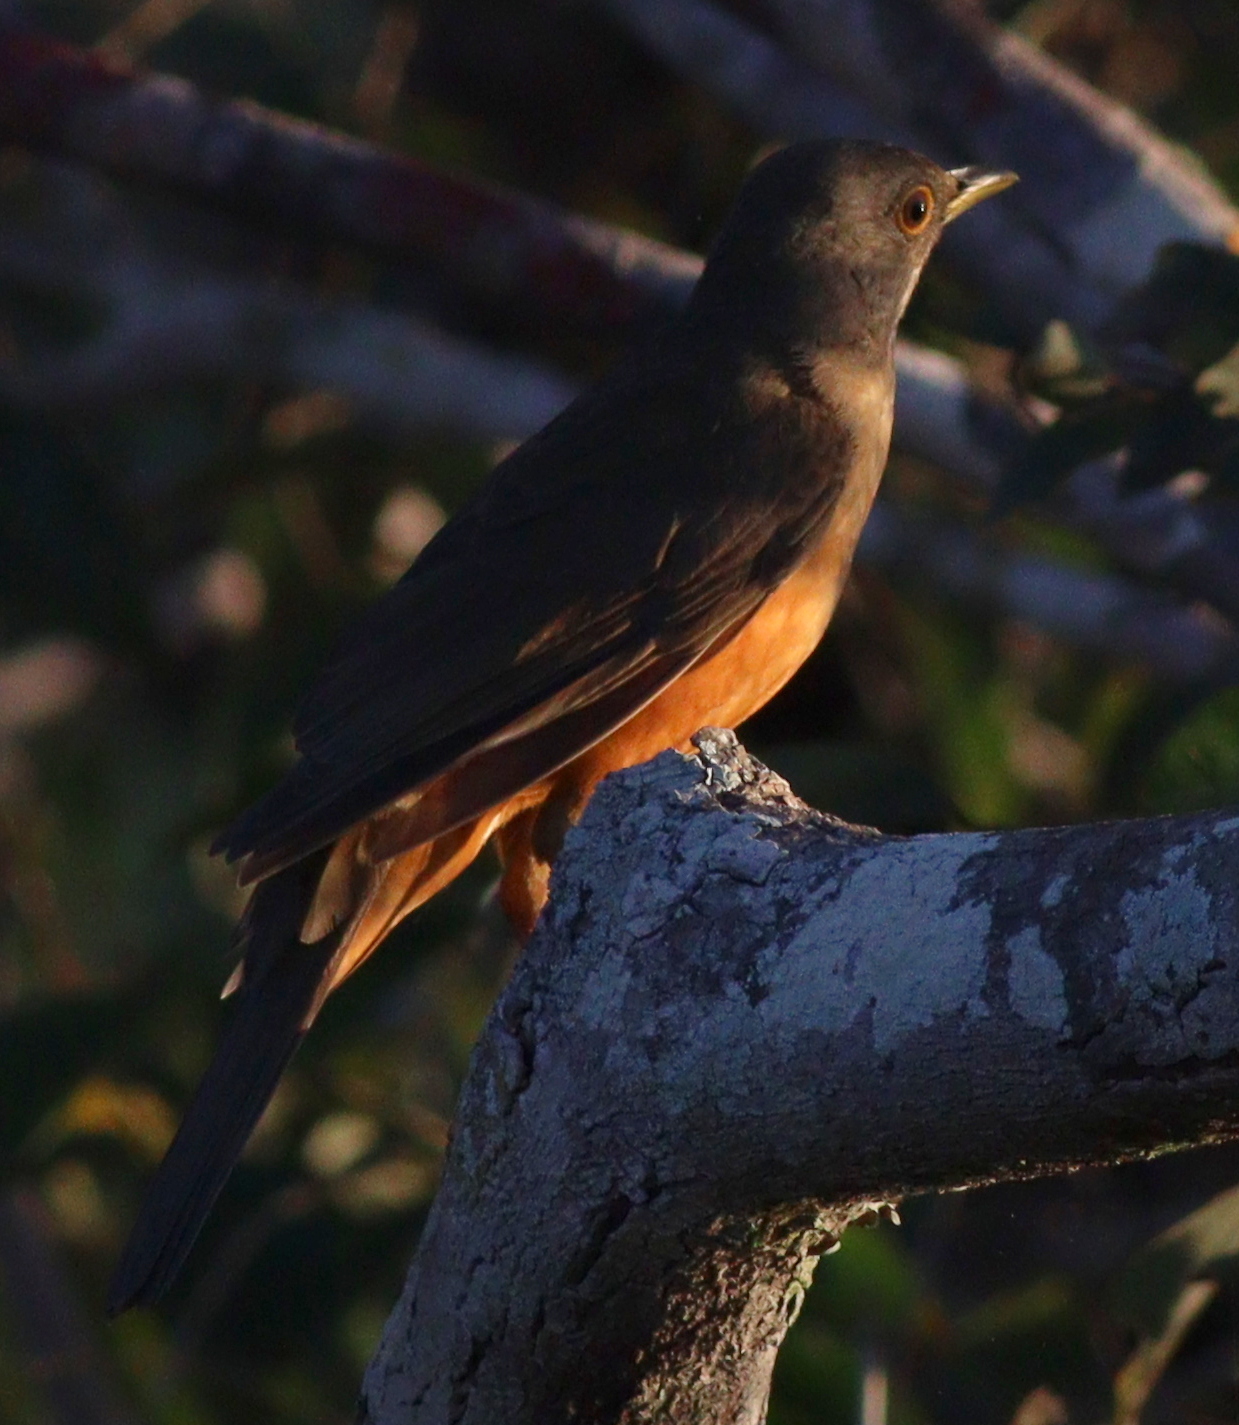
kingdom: Animalia
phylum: Chordata
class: Aves
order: Passeriformes
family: Turdidae
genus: Turdus
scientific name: Turdus rufiventris
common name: Rufous-bellied thrush
